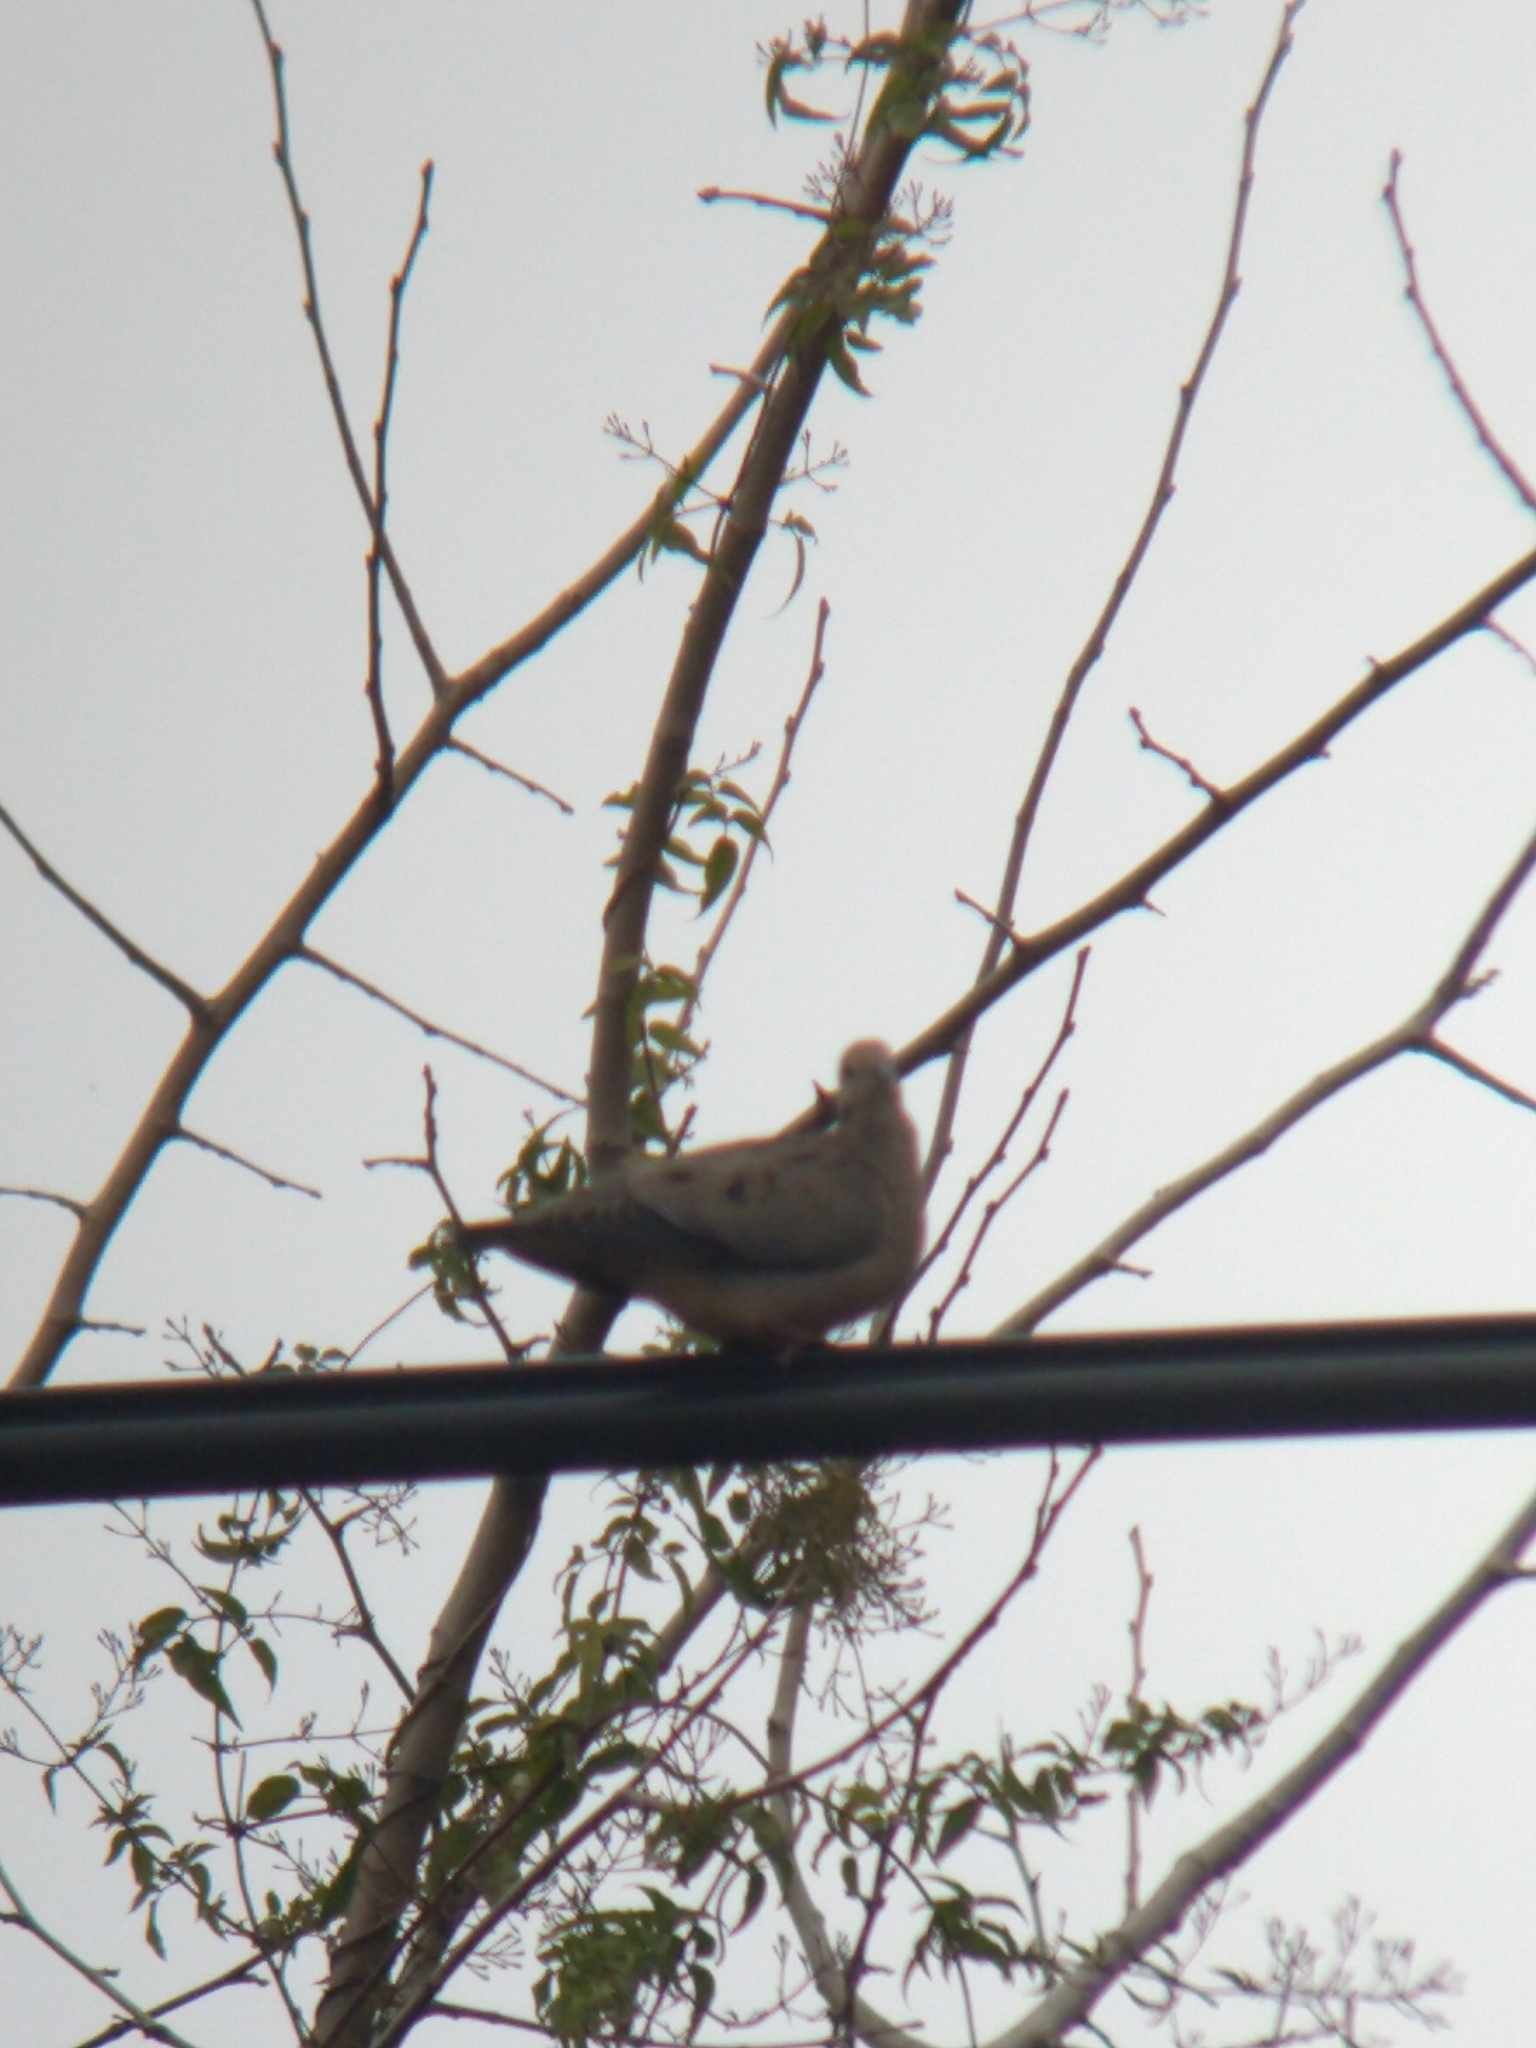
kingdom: Animalia
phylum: Chordata
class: Aves
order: Columbiformes
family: Columbidae
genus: Zenaida
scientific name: Zenaida auriculata
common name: Eared dove
